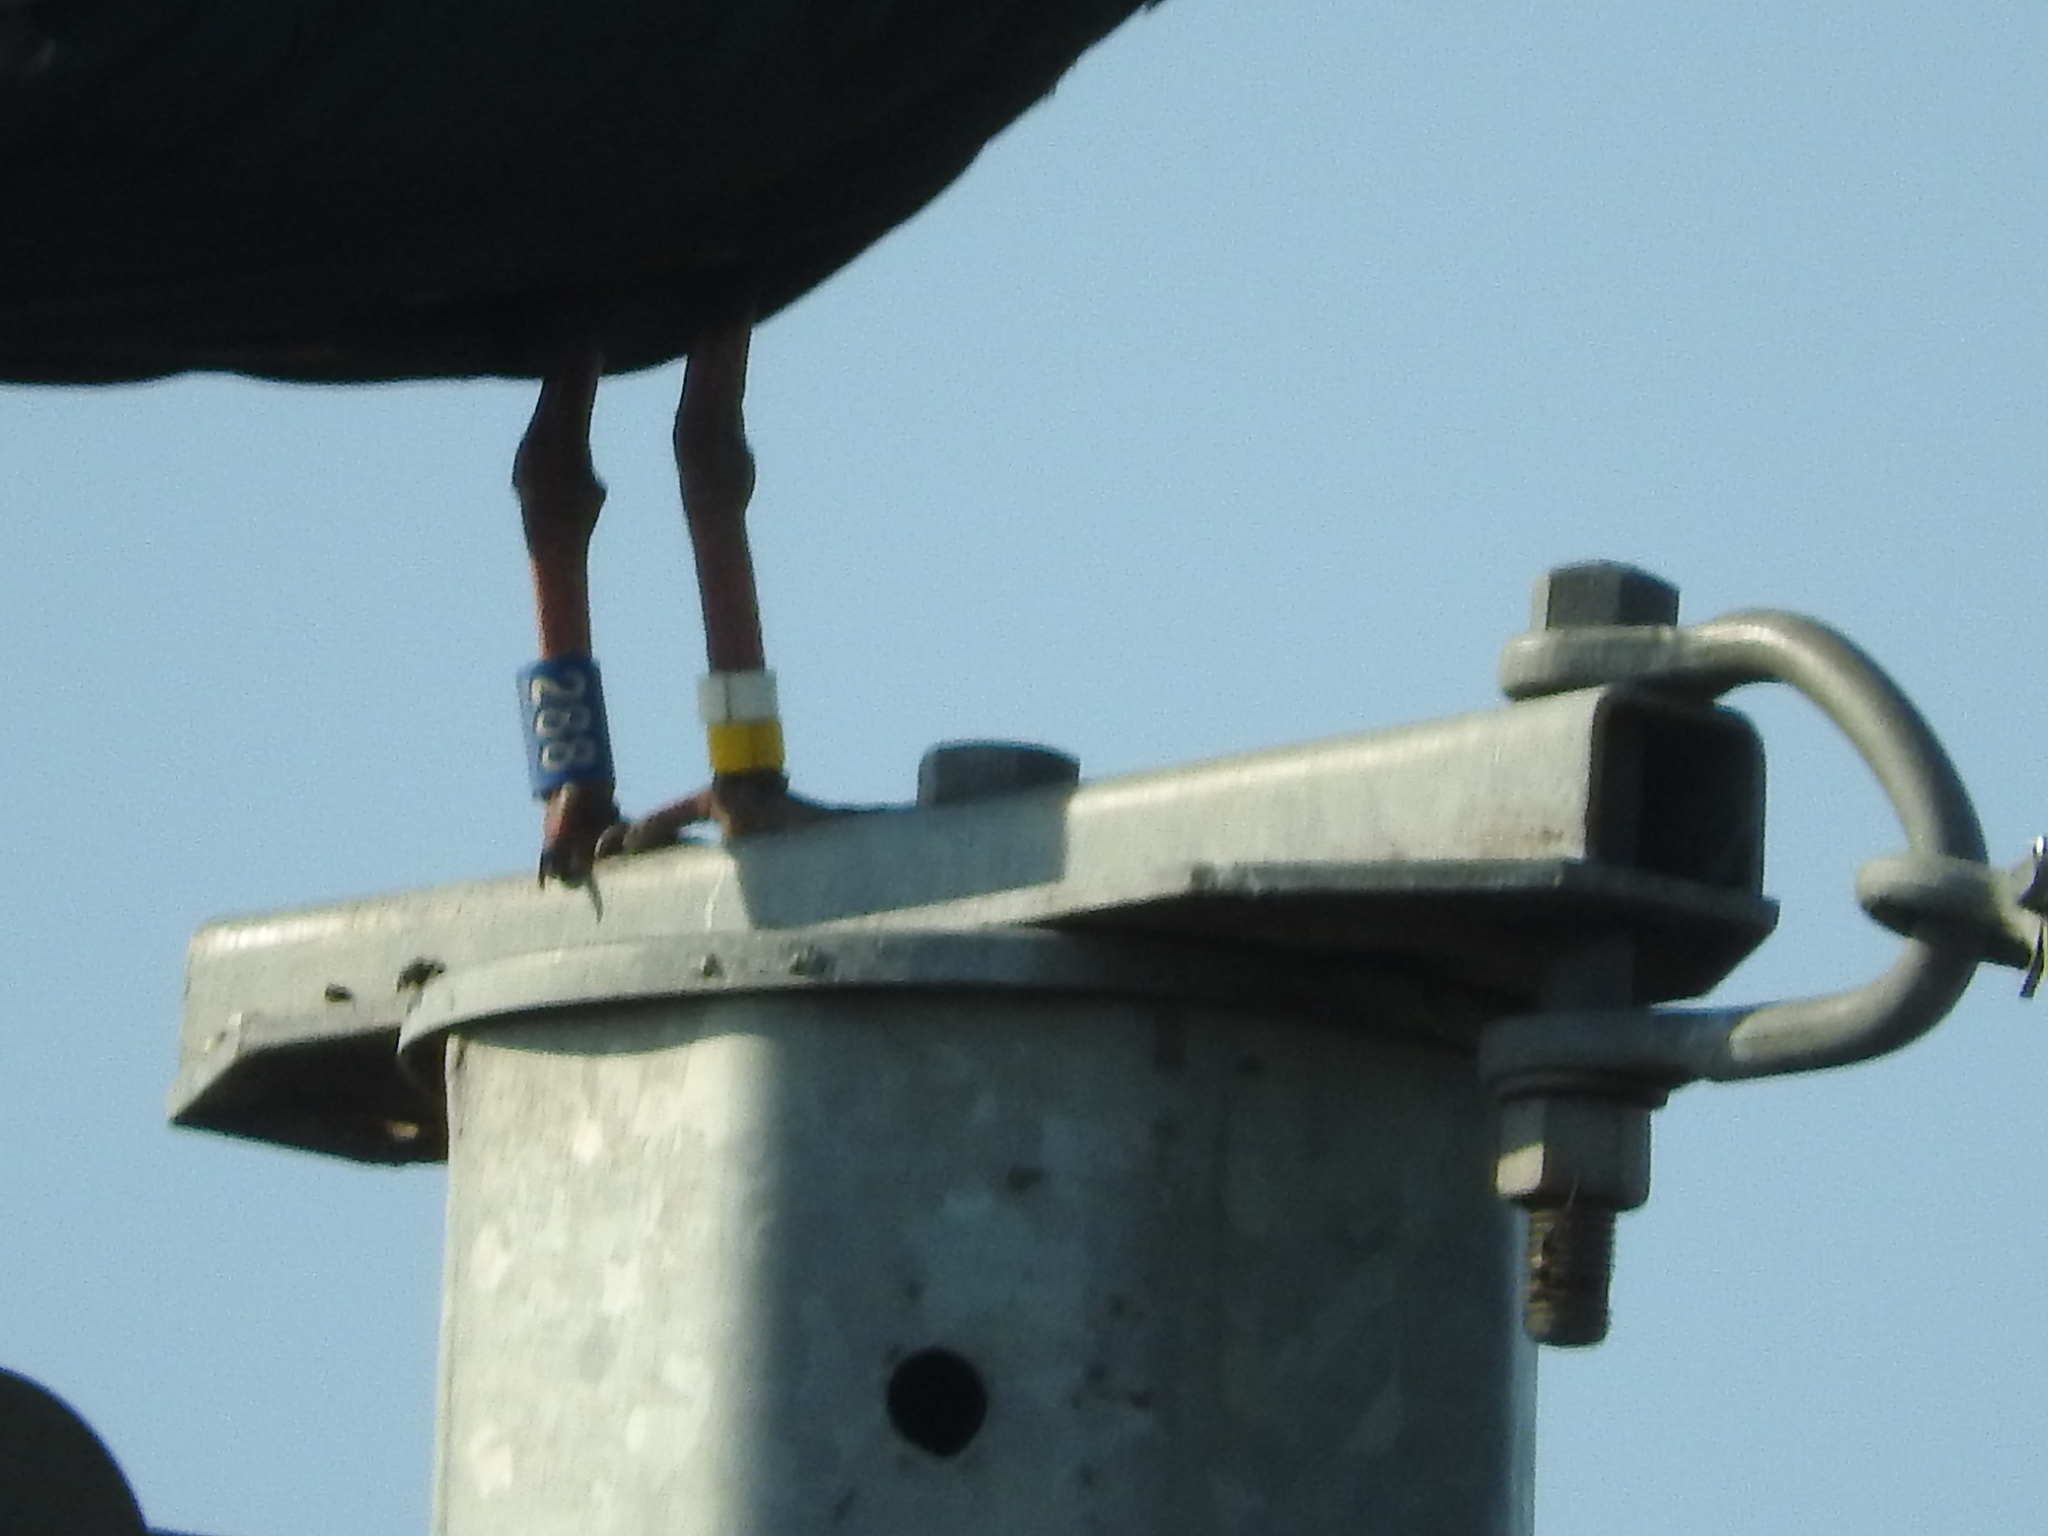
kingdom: Animalia
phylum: Chordata
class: Aves
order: Pelecaniformes
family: Threskiornithidae
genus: Geronticus
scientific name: Geronticus eremita
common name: Northern bald ibis
